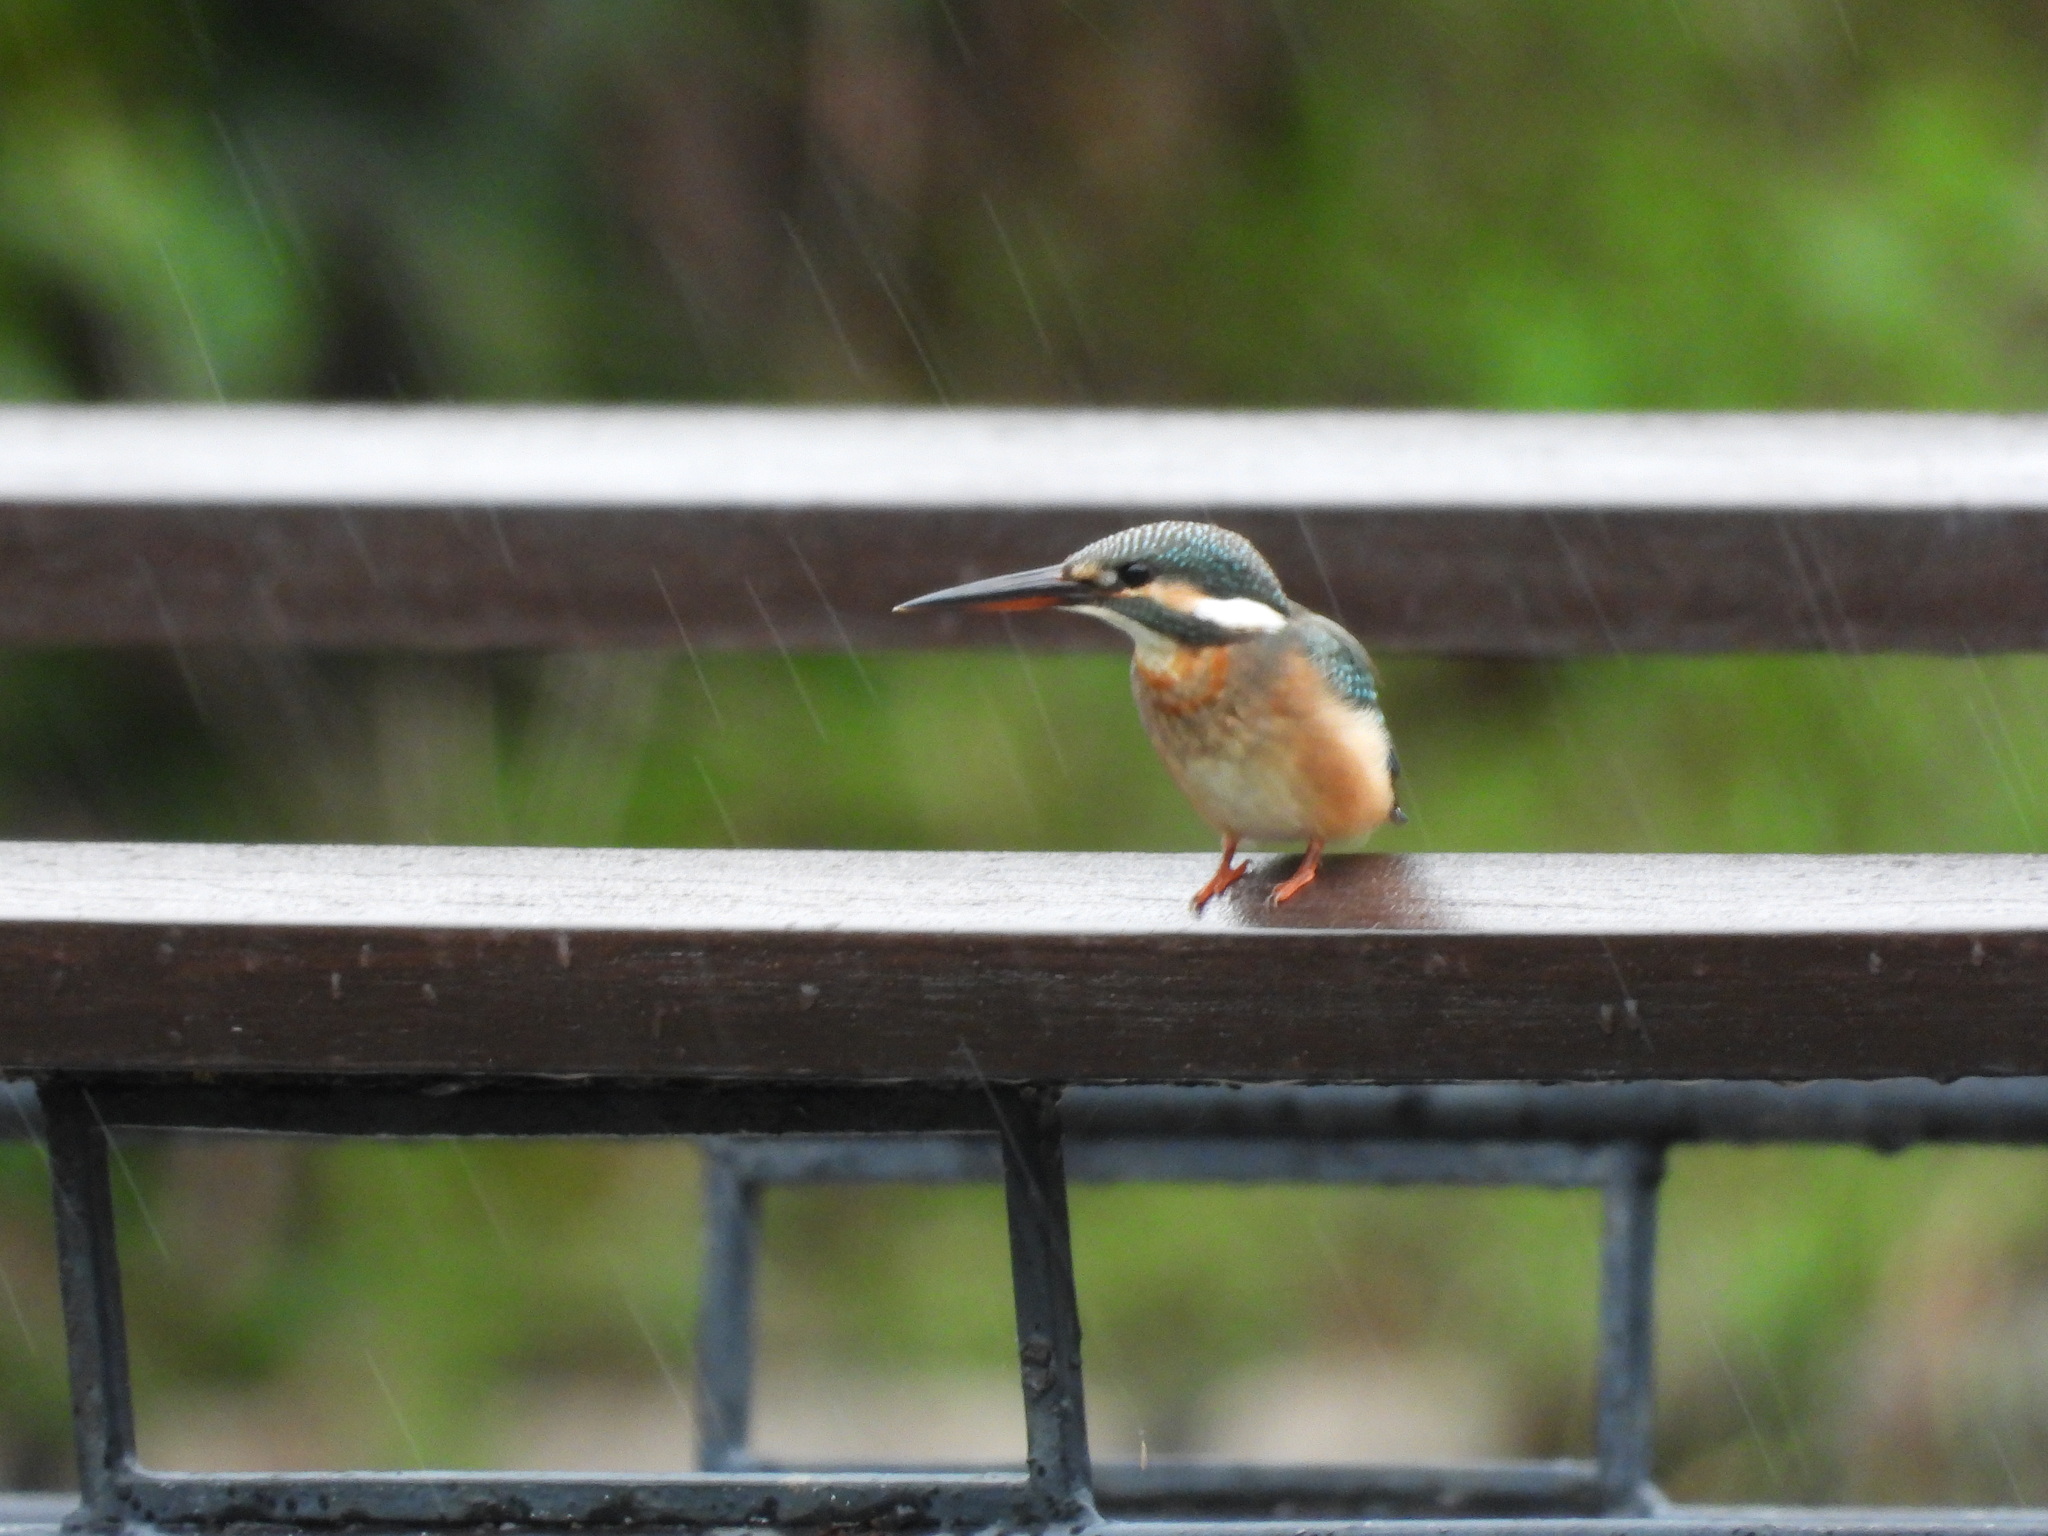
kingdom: Animalia
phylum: Chordata
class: Aves
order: Coraciiformes
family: Alcedinidae
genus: Alcedo
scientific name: Alcedo atthis
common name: Common kingfisher
